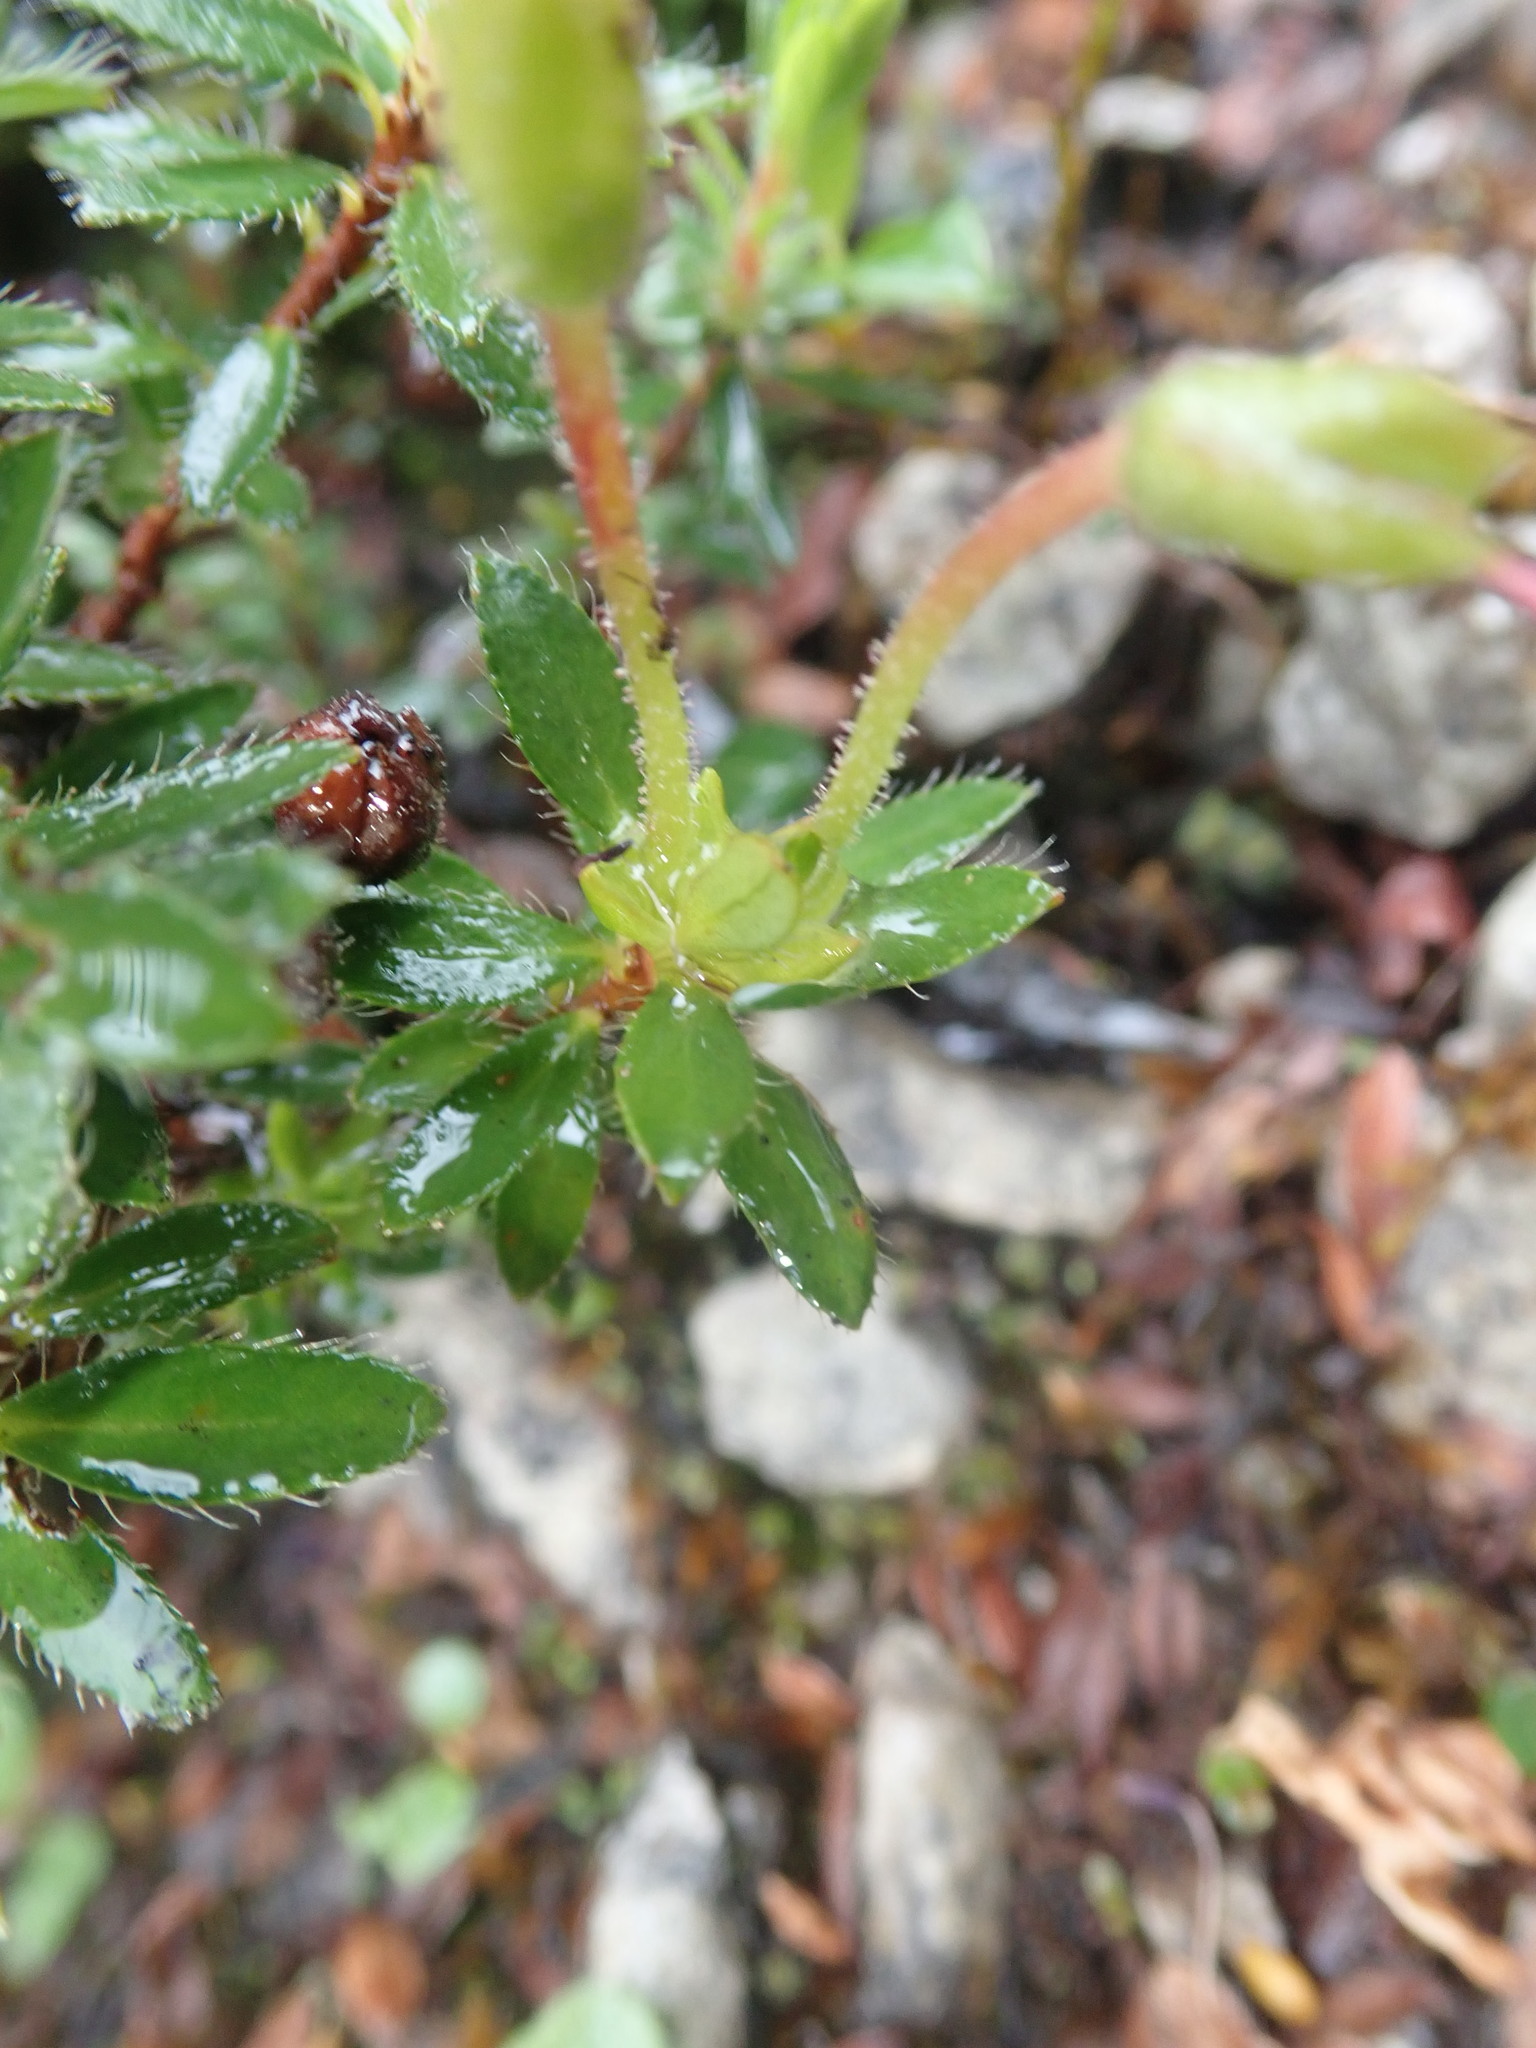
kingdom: Plantae
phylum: Tracheophyta
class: Magnoliopsida
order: Ericales
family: Ericaceae
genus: Rhodothamnus
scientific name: Rhodothamnus chamaecistus
